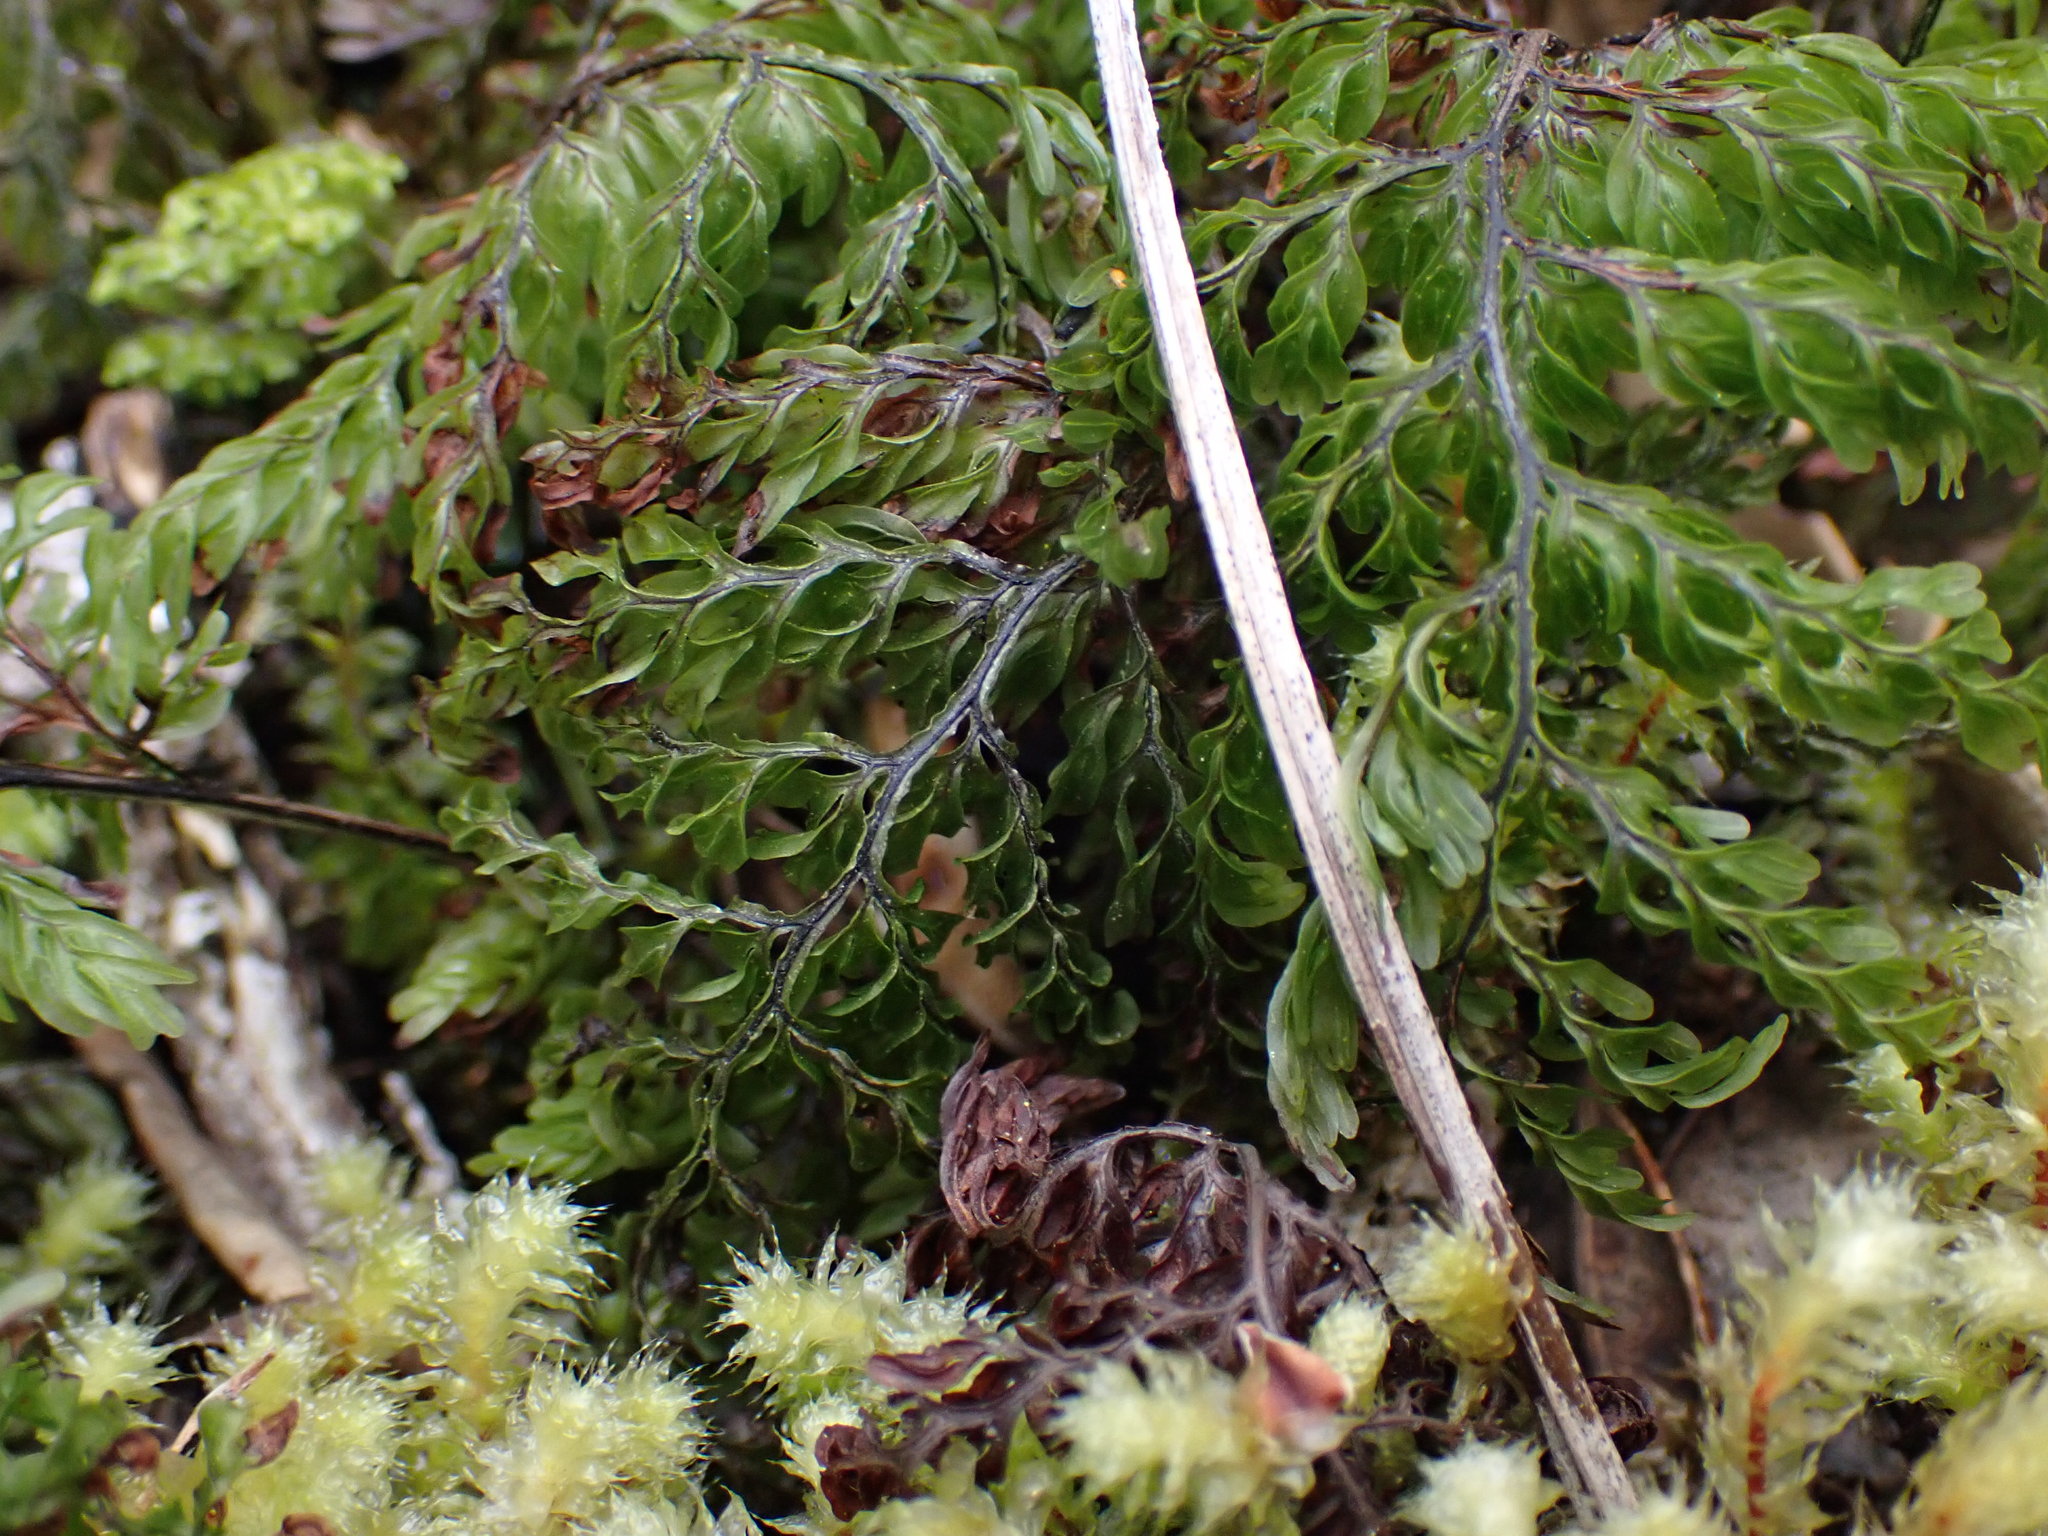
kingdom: Plantae
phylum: Tracheophyta
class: Polypodiopsida
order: Hymenophyllales
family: Hymenophyllaceae
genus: Hymenophyllum
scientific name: Hymenophyllum sanguinolentum
